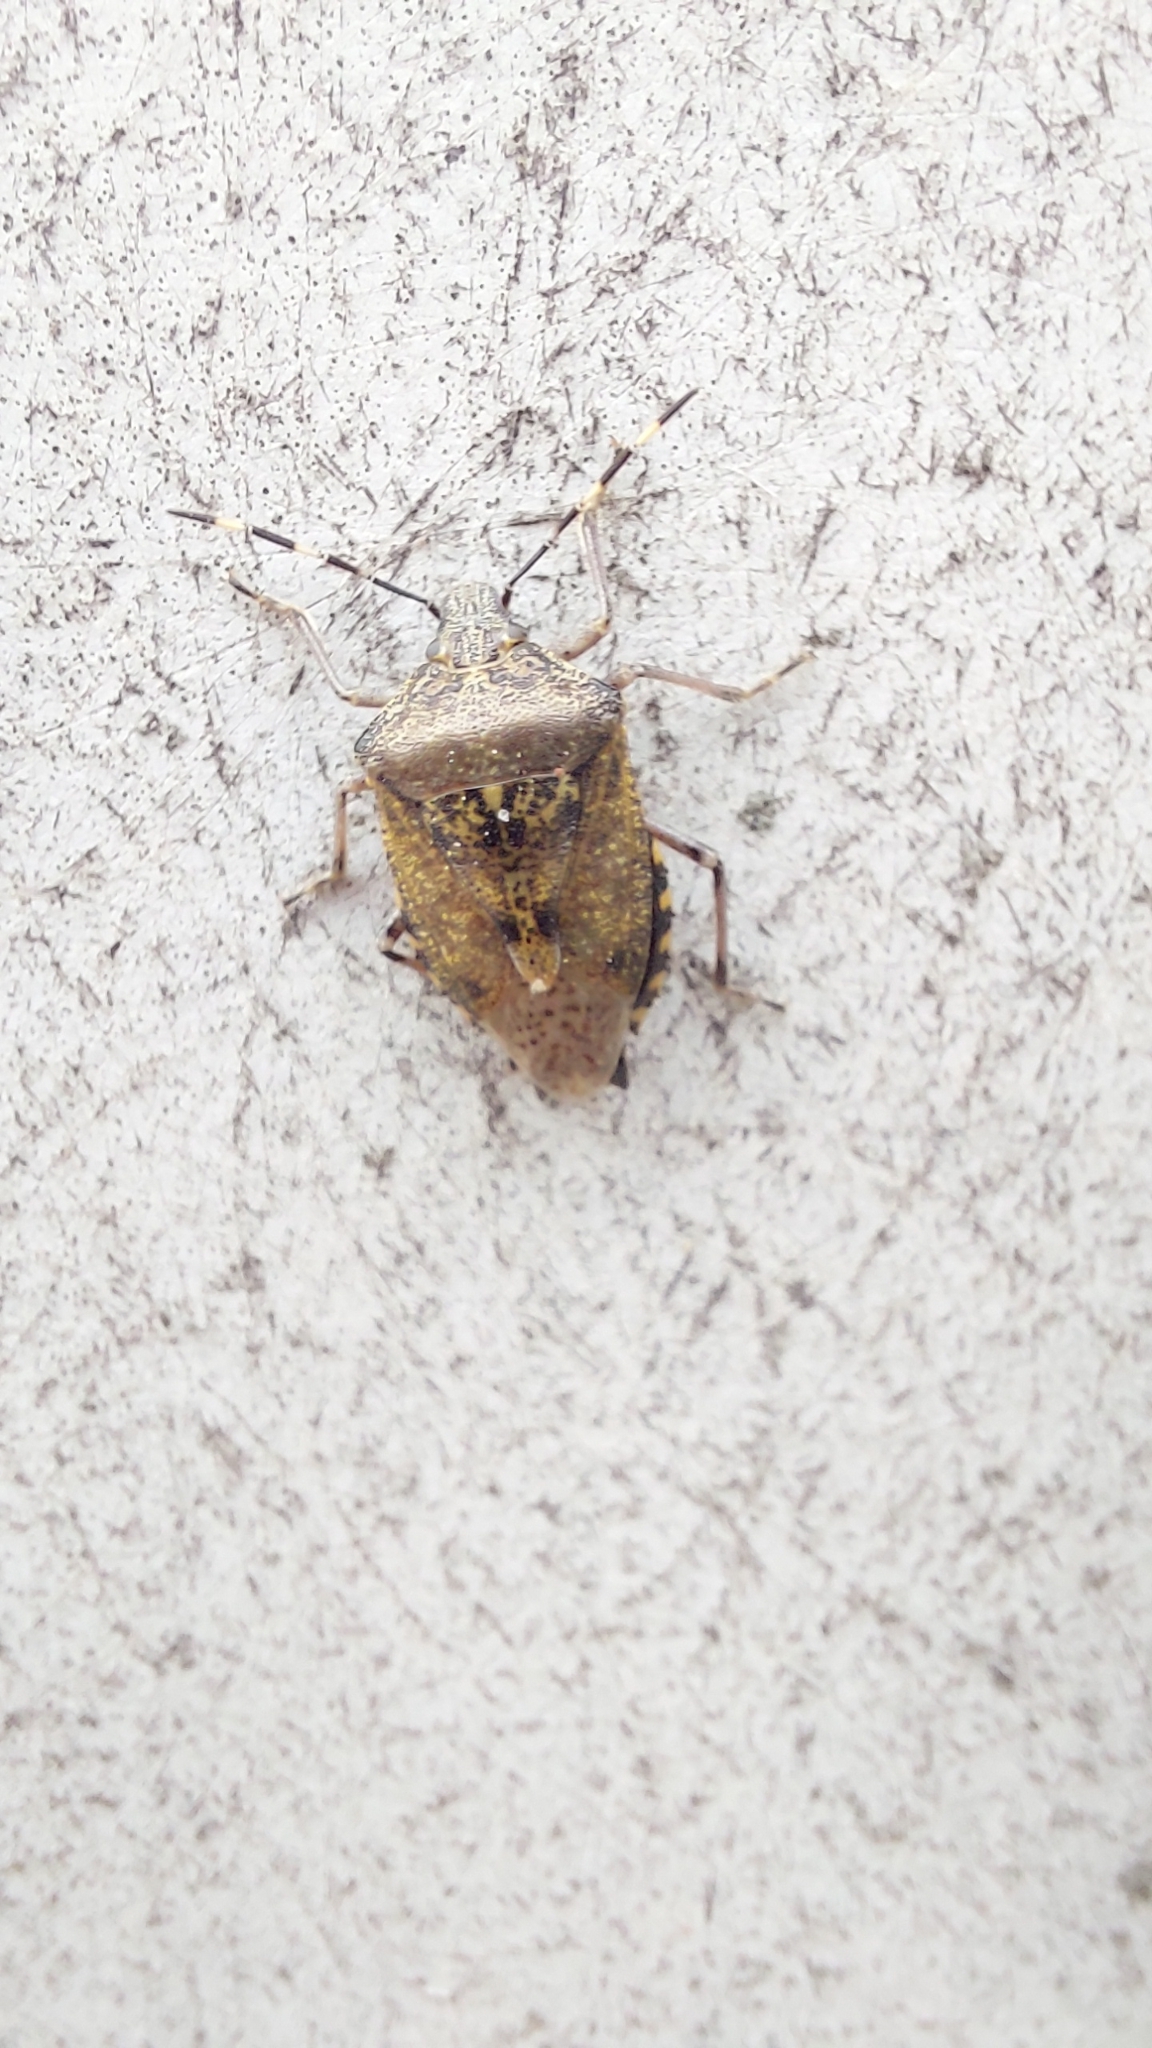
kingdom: Animalia
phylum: Arthropoda
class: Insecta
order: Hemiptera
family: Pentatomidae
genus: Rhaphigaster
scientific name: Rhaphigaster nebulosa
